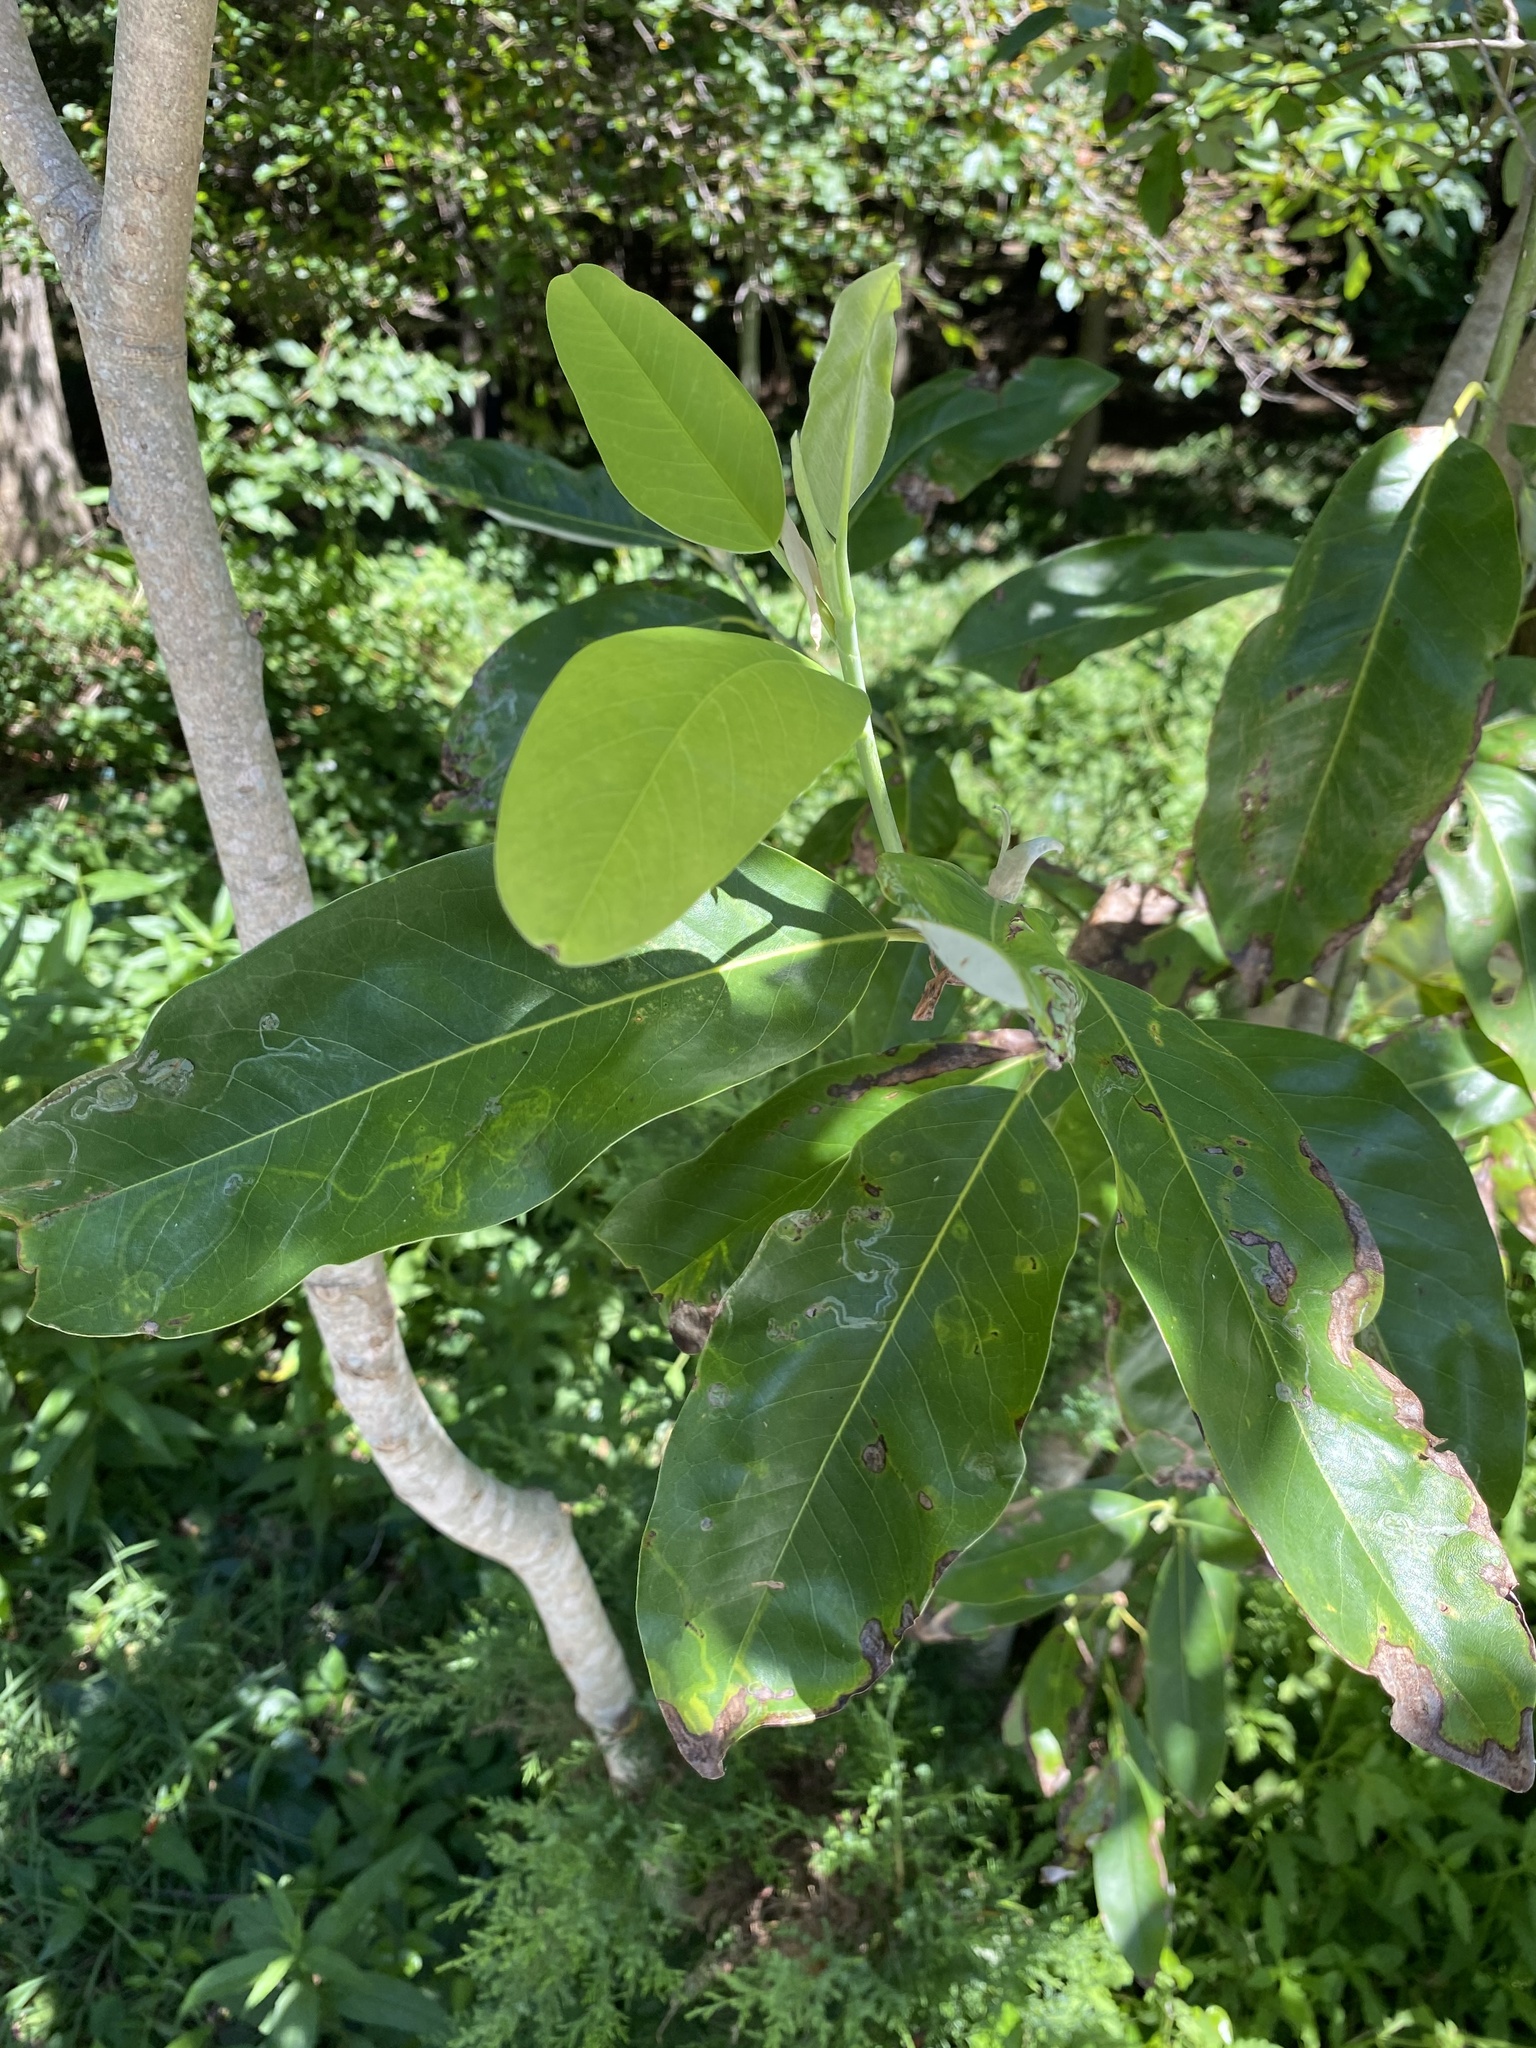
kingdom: Plantae
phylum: Tracheophyta
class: Magnoliopsida
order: Magnoliales
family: Magnoliaceae
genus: Magnolia
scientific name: Magnolia virginiana
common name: Swamp bay
